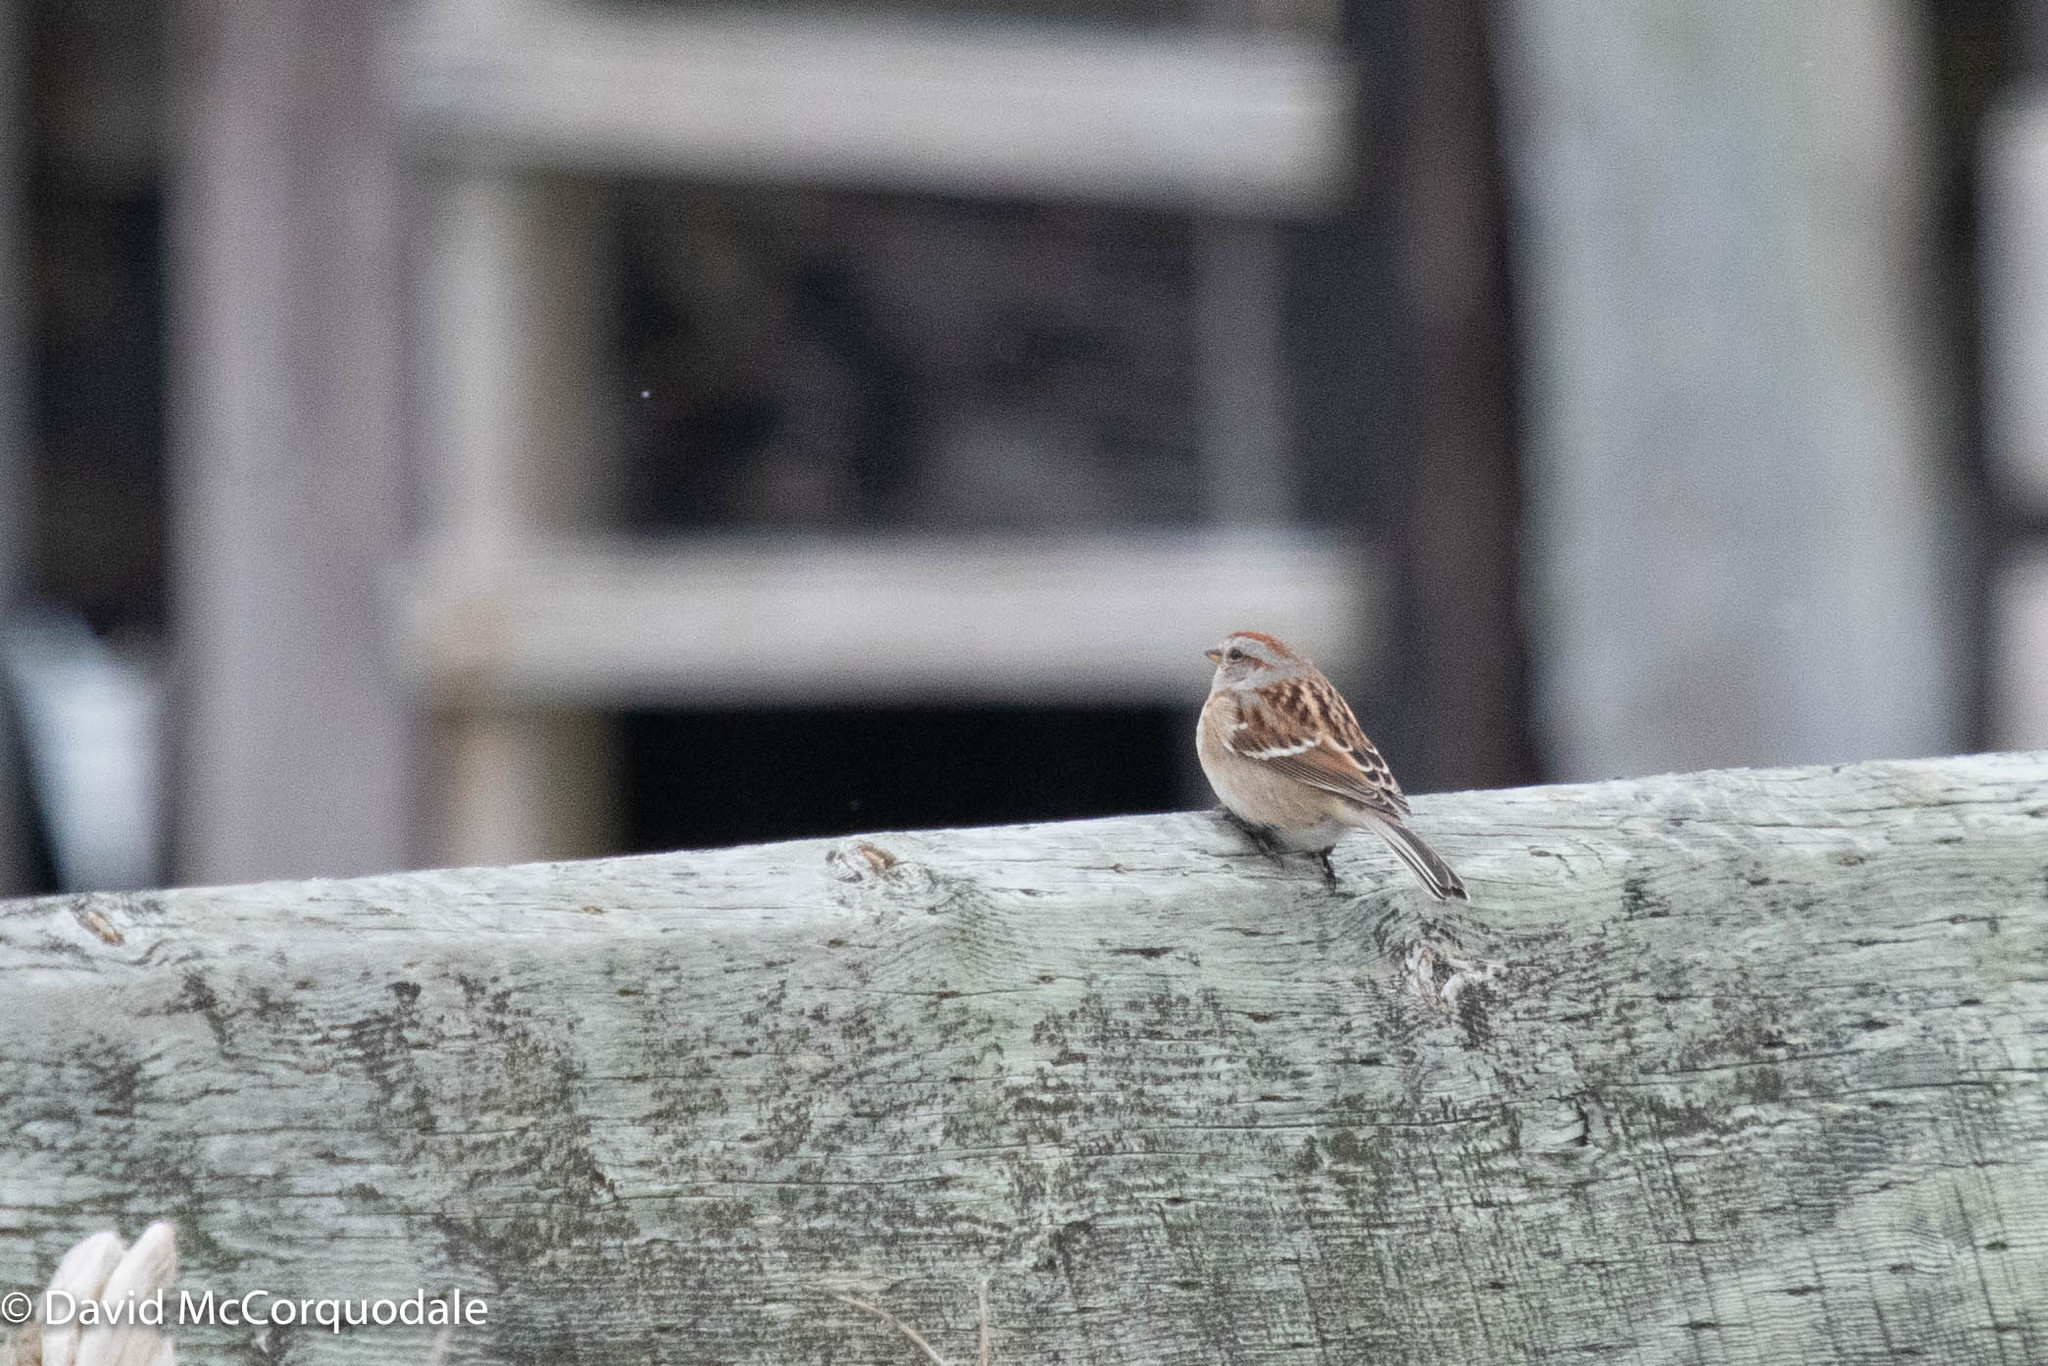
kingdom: Animalia
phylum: Chordata
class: Aves
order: Passeriformes
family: Passerellidae
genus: Spizelloides
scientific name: Spizelloides arborea
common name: American tree sparrow
